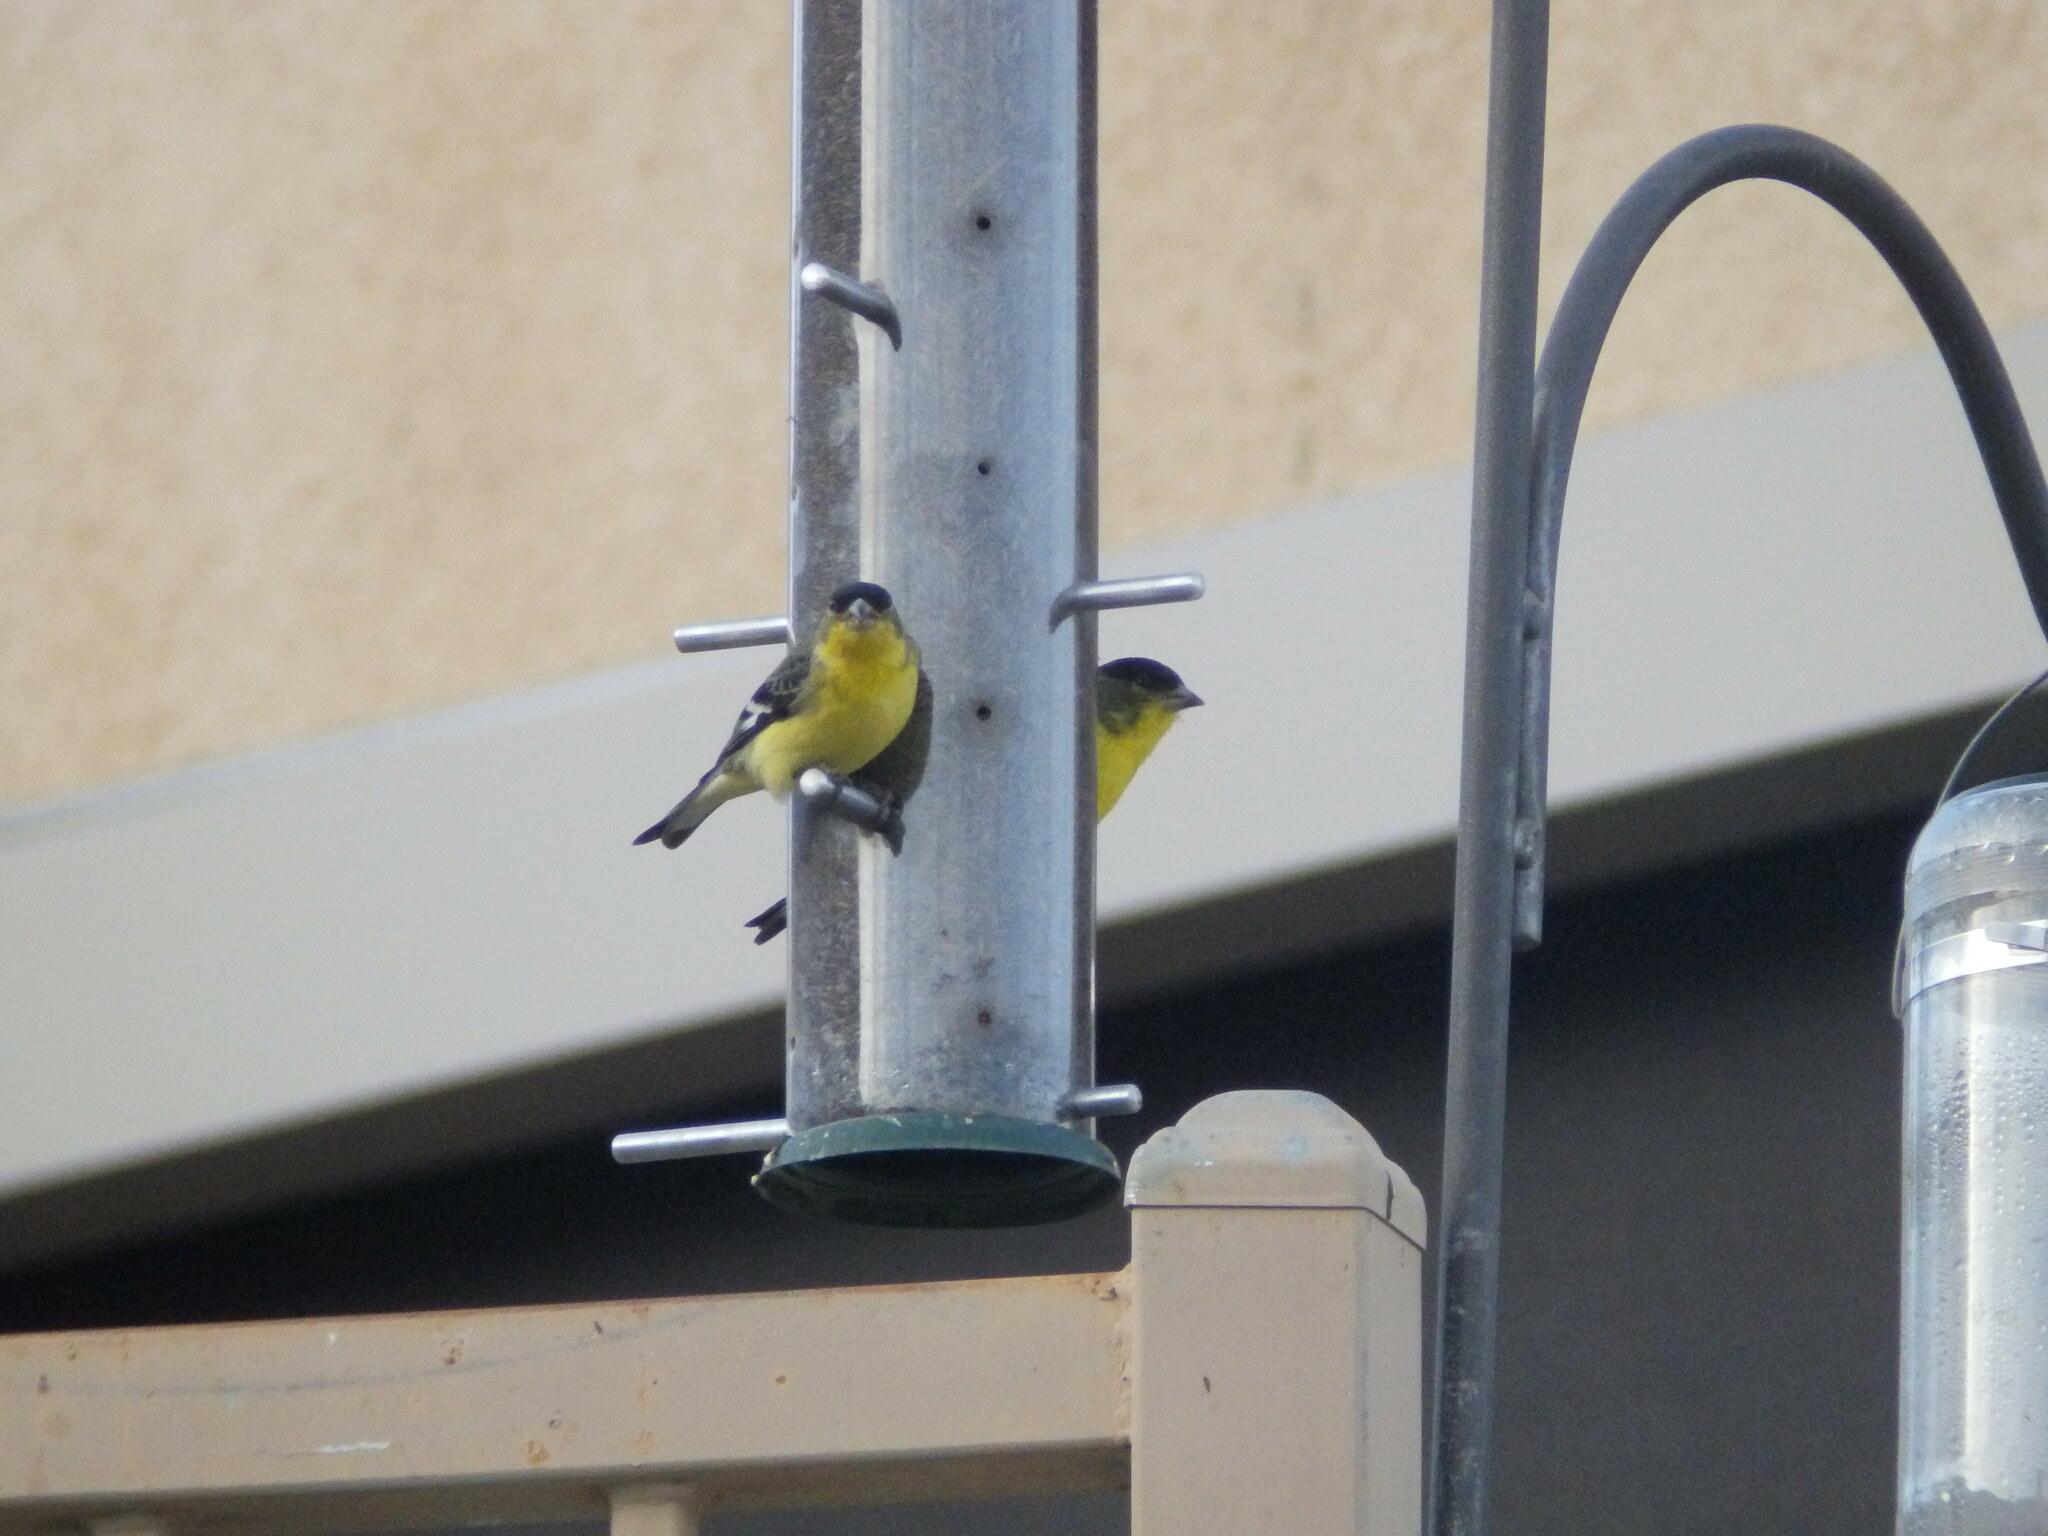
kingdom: Animalia
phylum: Chordata
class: Aves
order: Passeriformes
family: Fringillidae
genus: Spinus
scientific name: Spinus psaltria
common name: Lesser goldfinch
